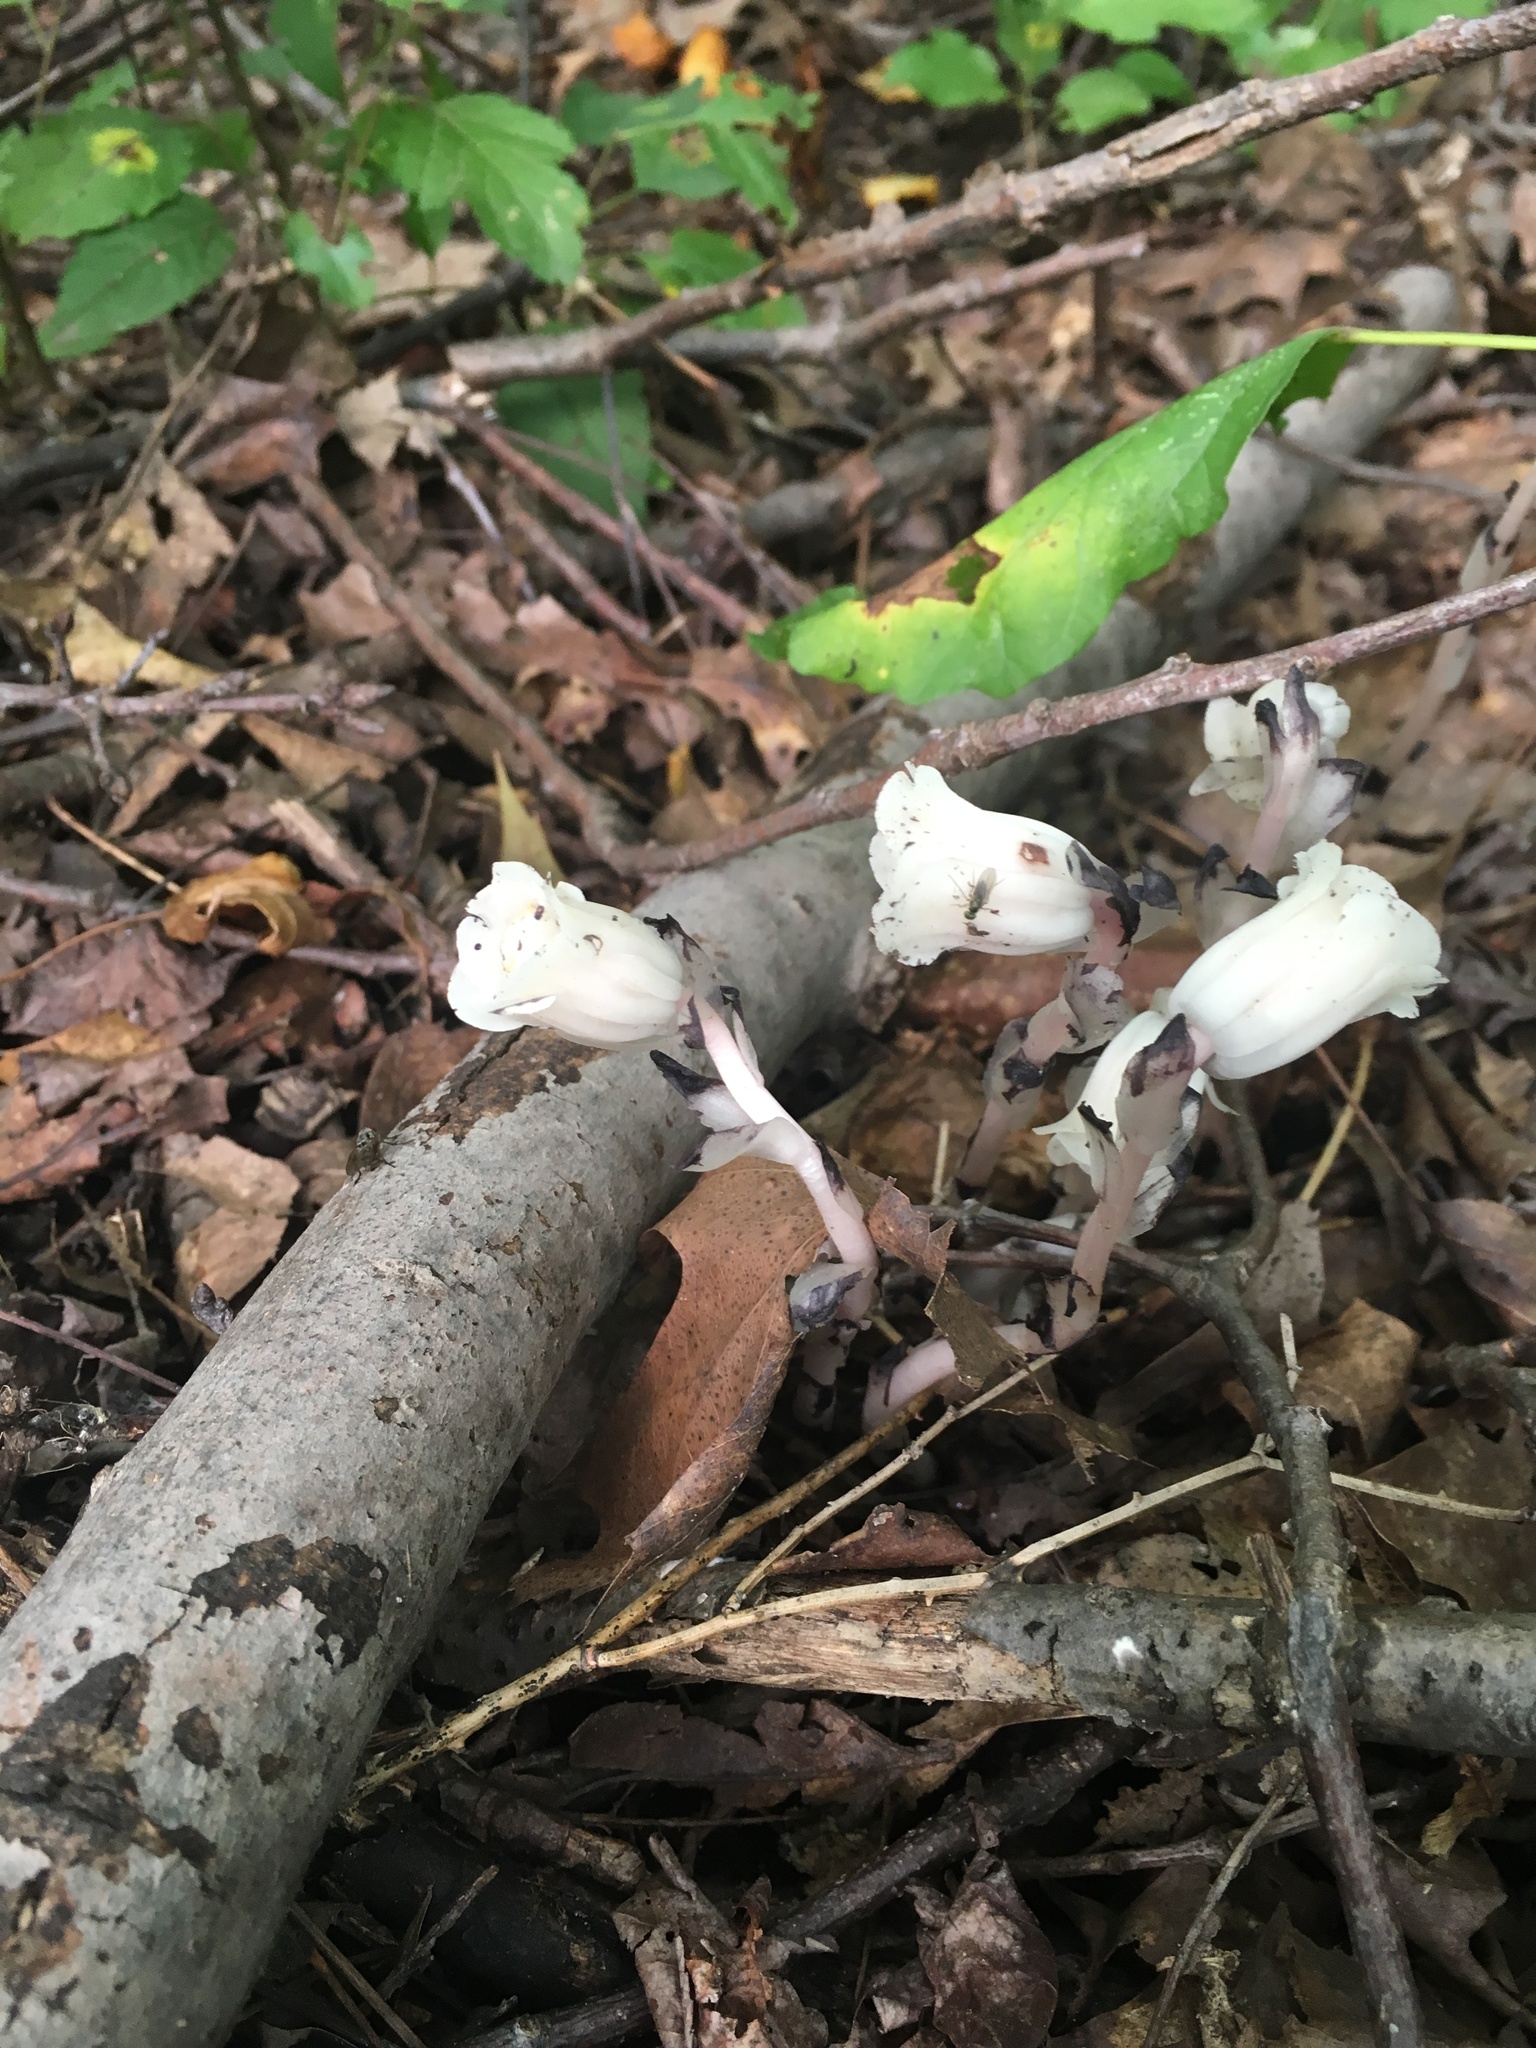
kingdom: Plantae
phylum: Tracheophyta
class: Magnoliopsida
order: Ericales
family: Ericaceae
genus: Monotropa
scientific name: Monotropa uniflora
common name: Convulsion root
